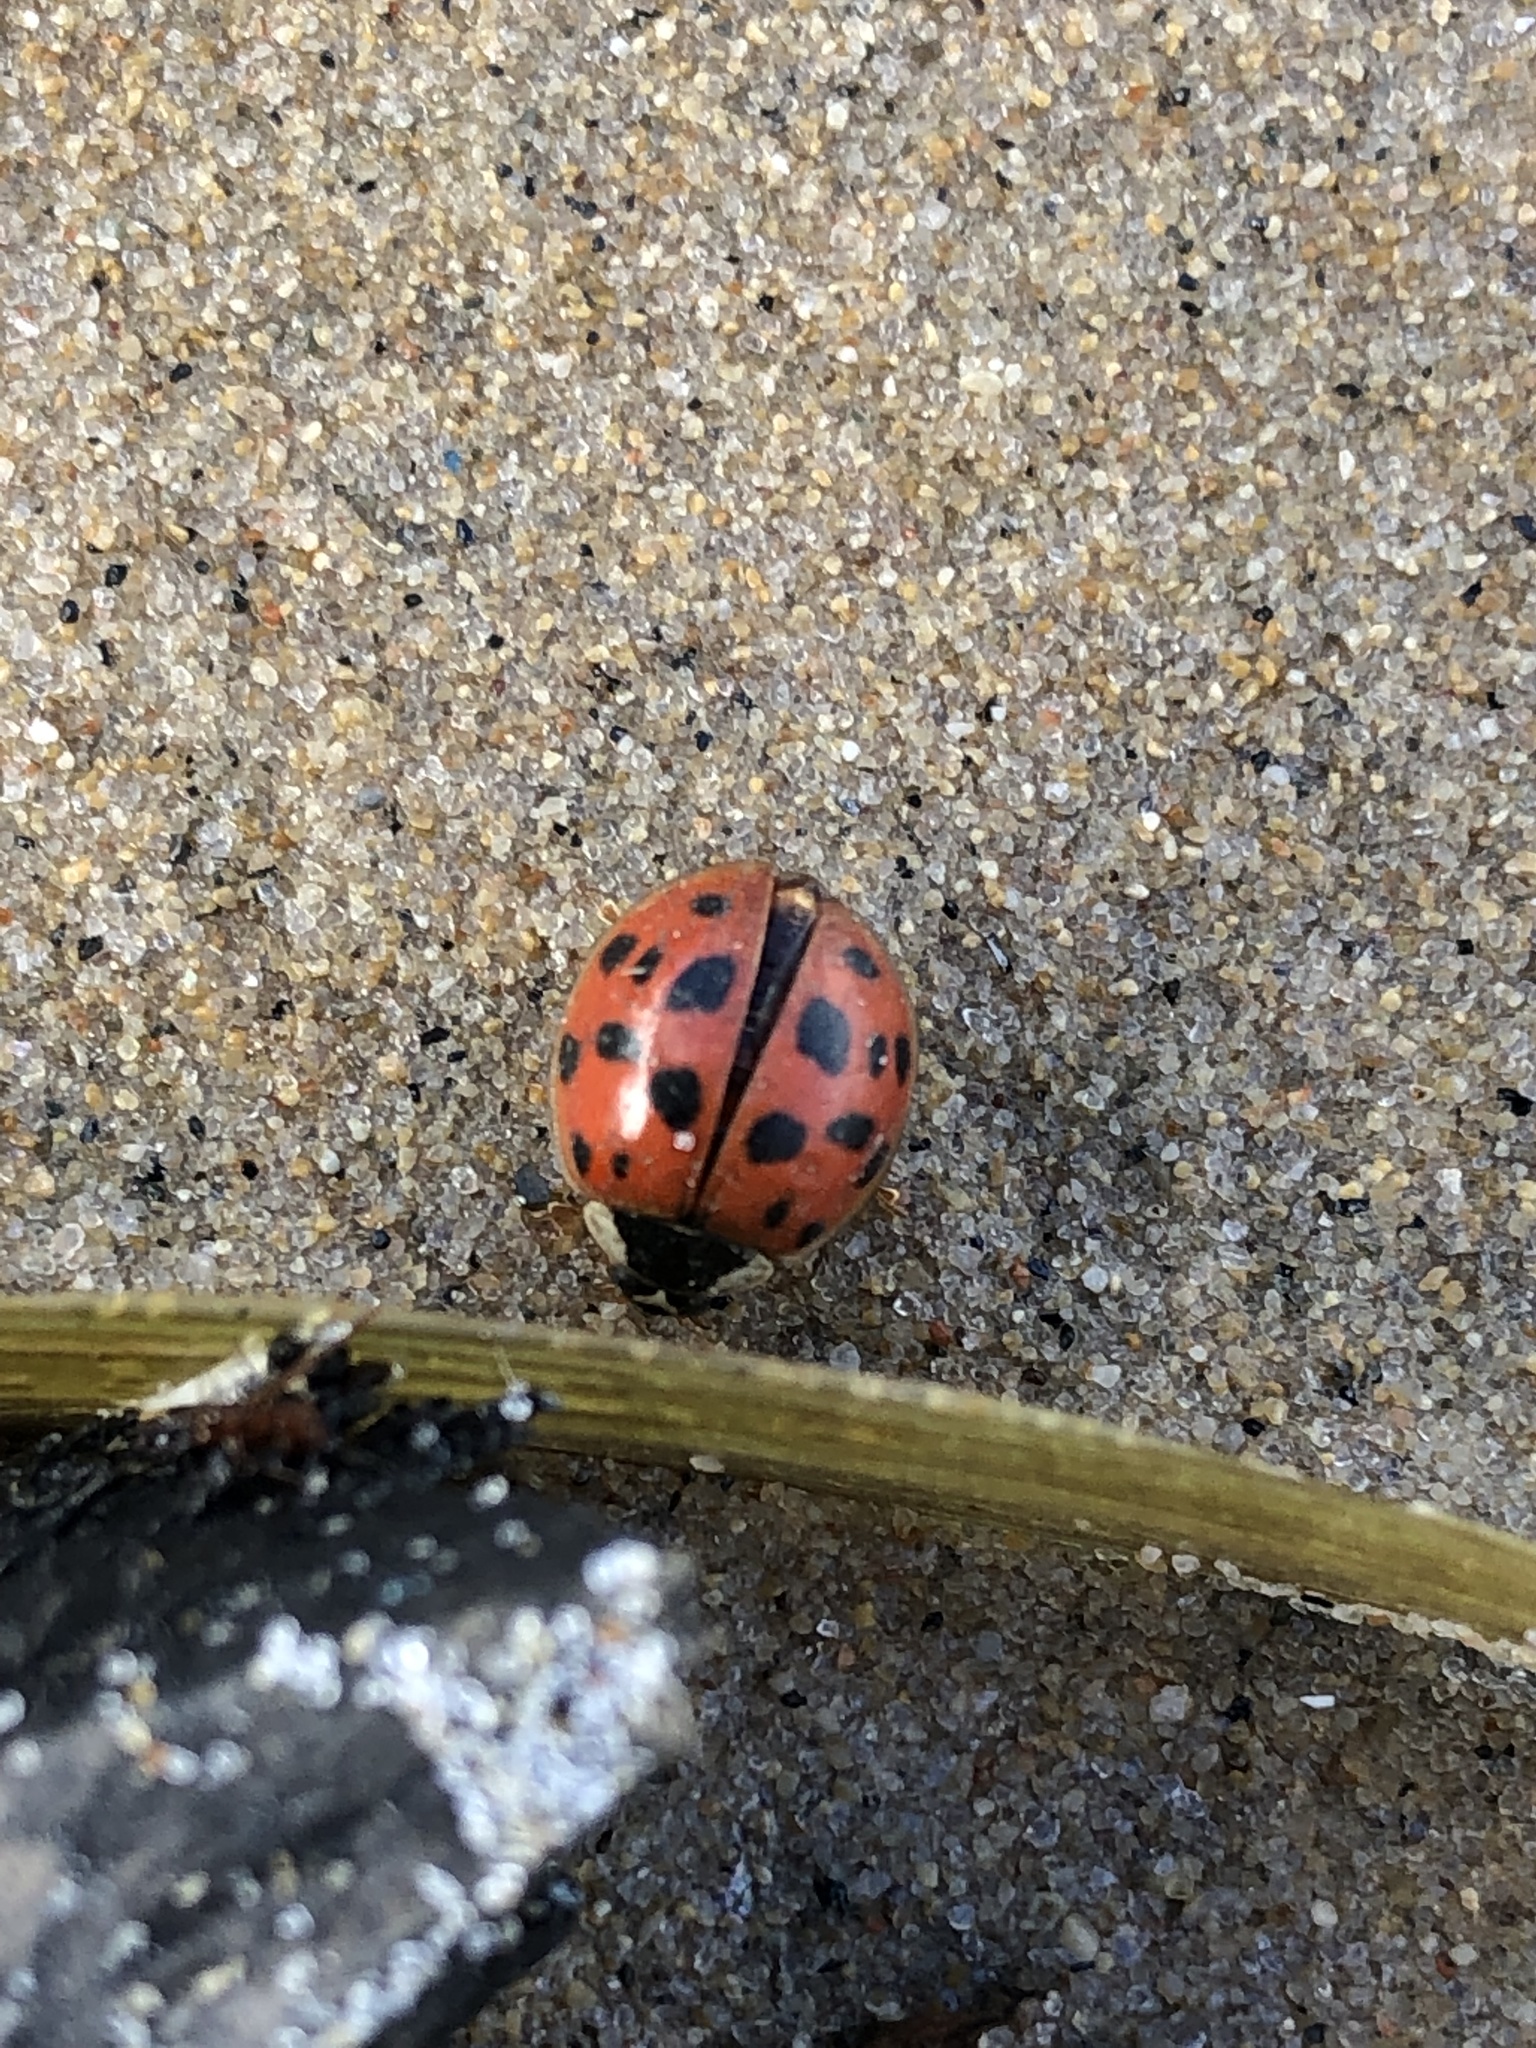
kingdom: Animalia
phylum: Arthropoda
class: Insecta
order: Coleoptera
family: Coccinellidae
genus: Harmonia
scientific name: Harmonia axyridis
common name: Harlequin ladybird
